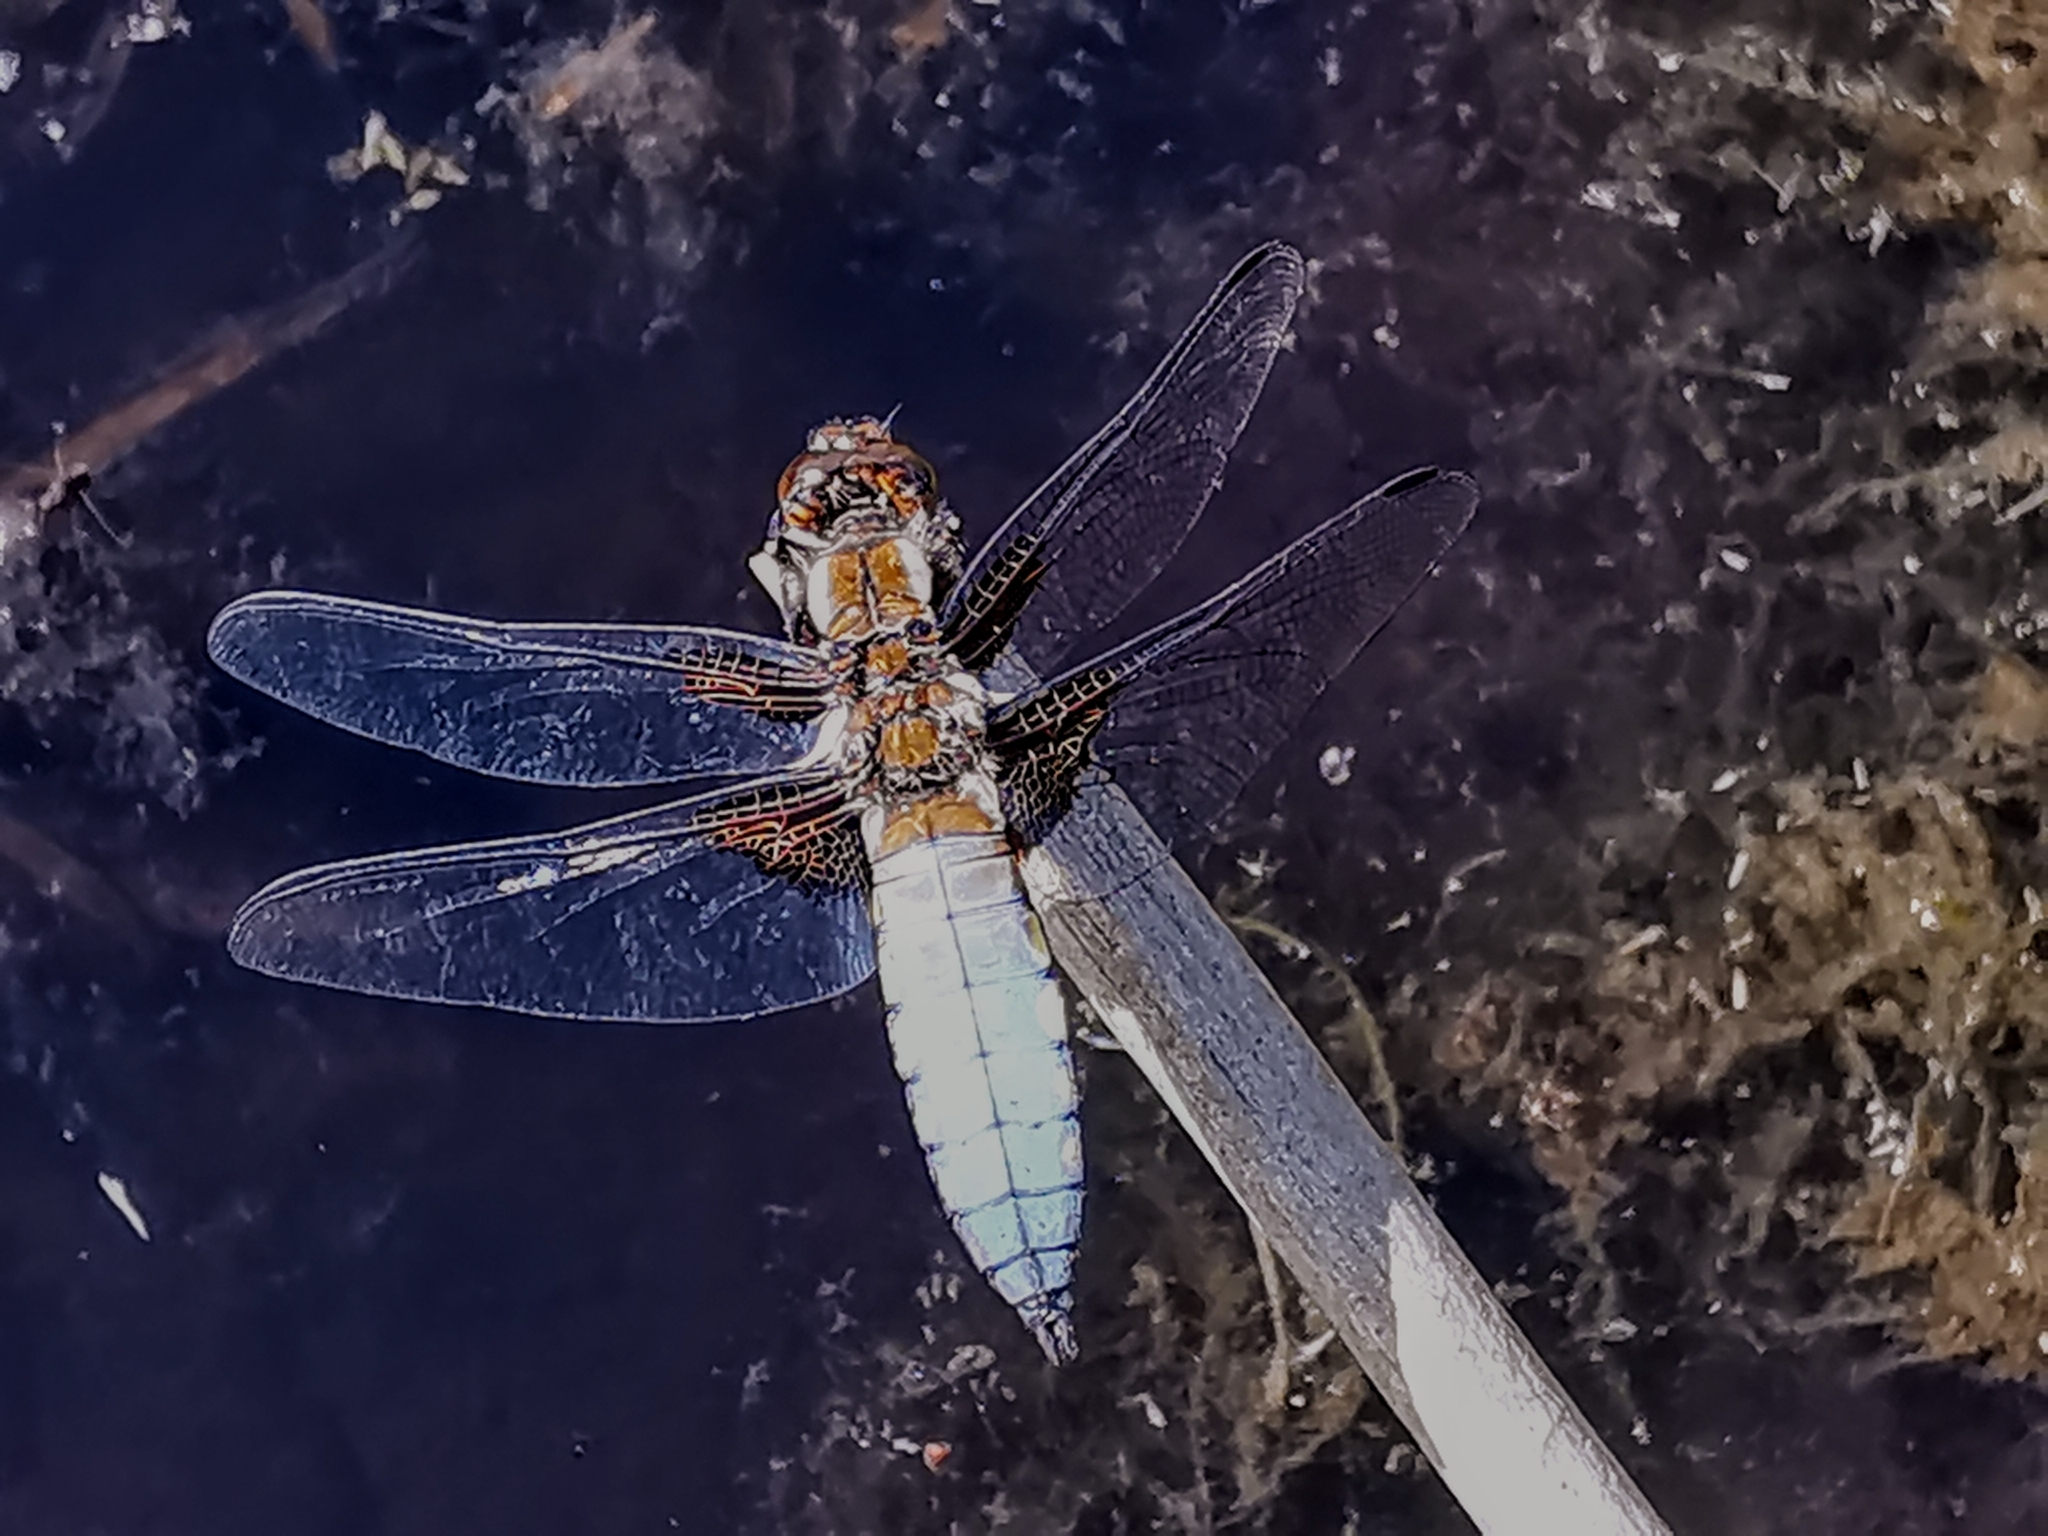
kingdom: Animalia
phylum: Arthropoda
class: Insecta
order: Odonata
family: Libellulidae
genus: Libellula
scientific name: Libellula depressa
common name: Broad-bodied chaser
